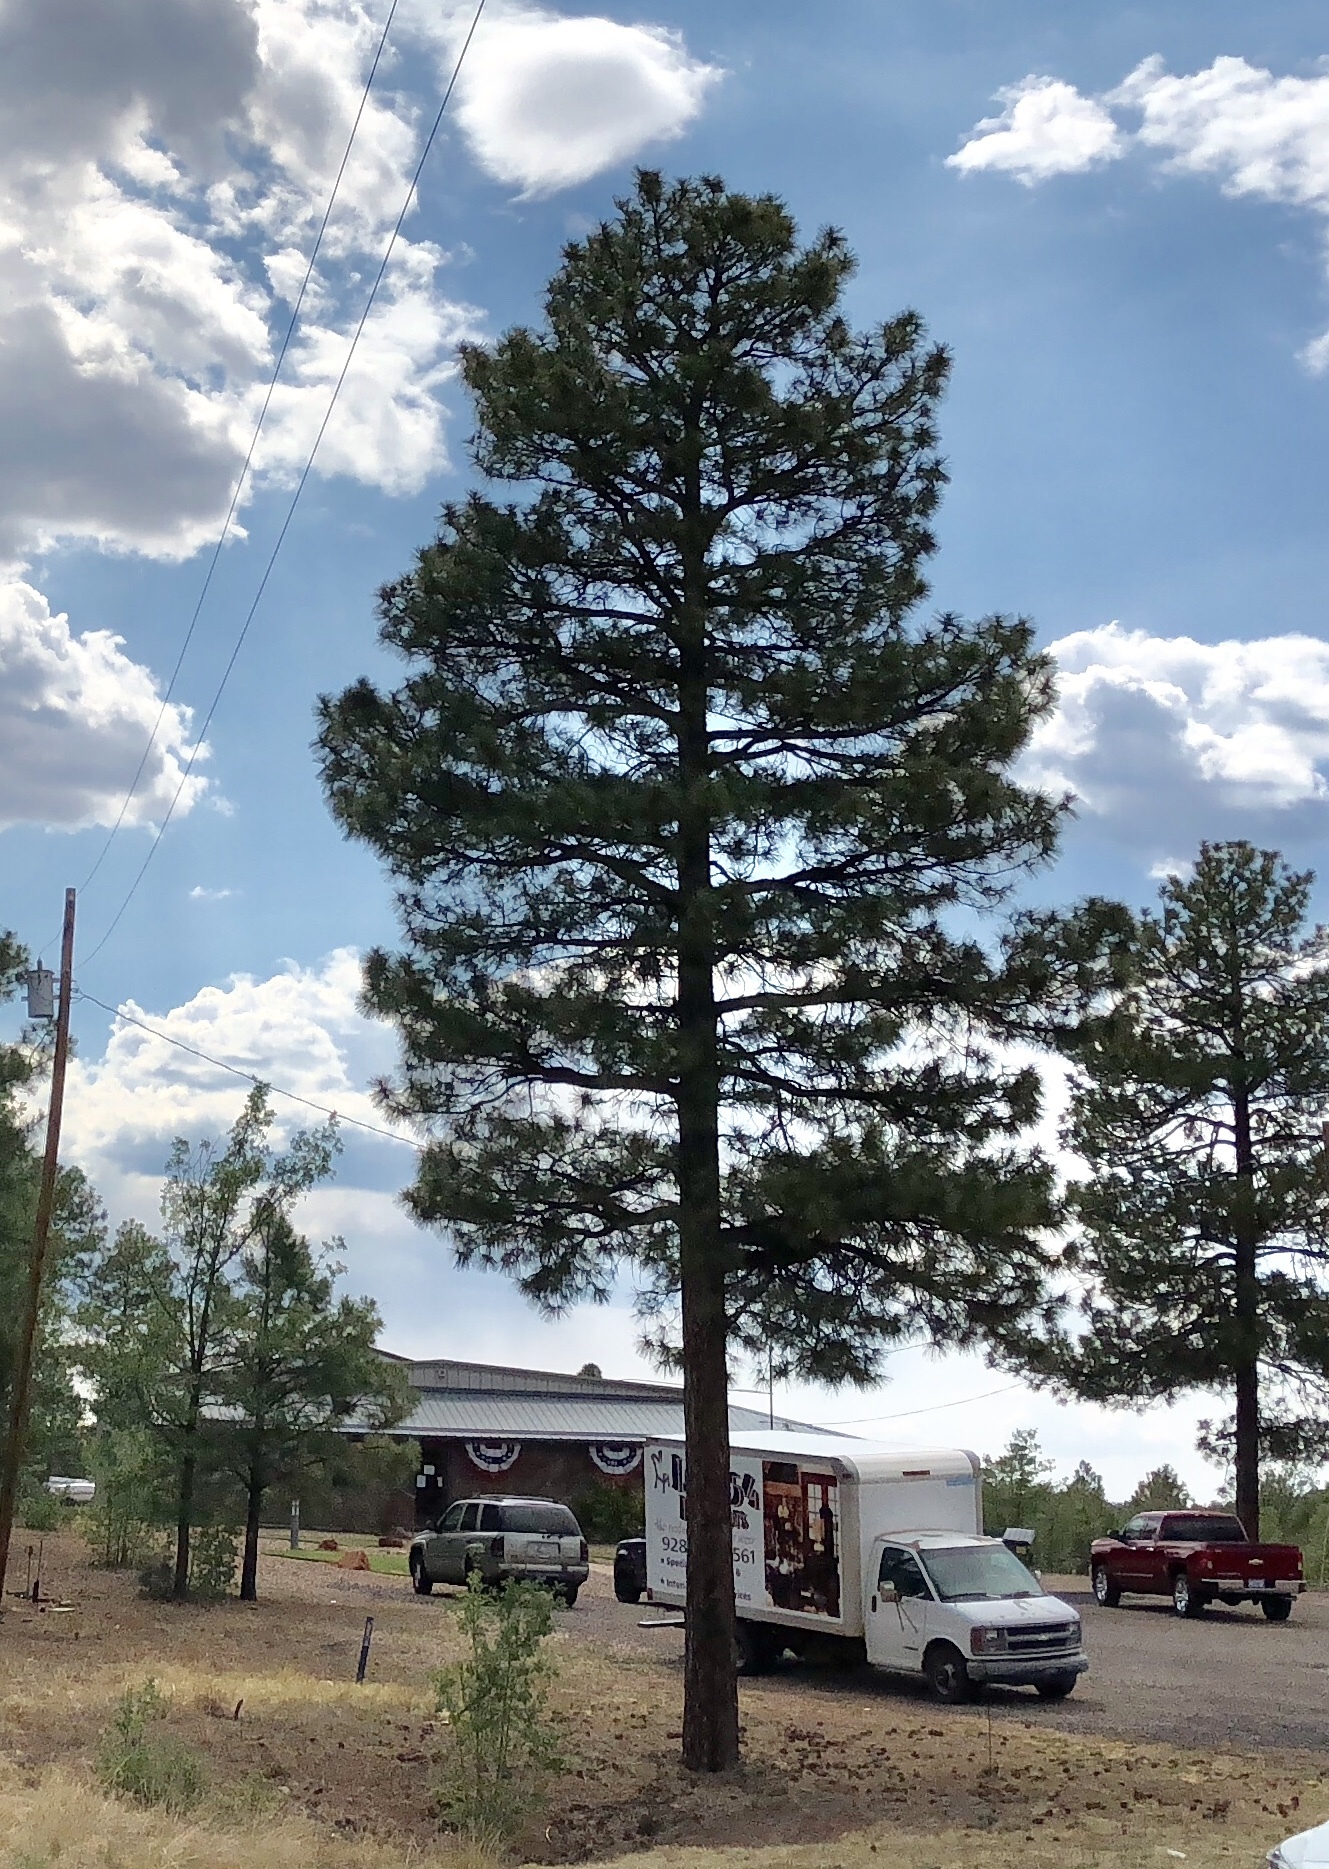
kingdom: Plantae
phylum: Tracheophyta
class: Pinopsida
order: Pinales
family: Pinaceae
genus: Pinus
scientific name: Pinus ponderosa
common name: Western yellow-pine
